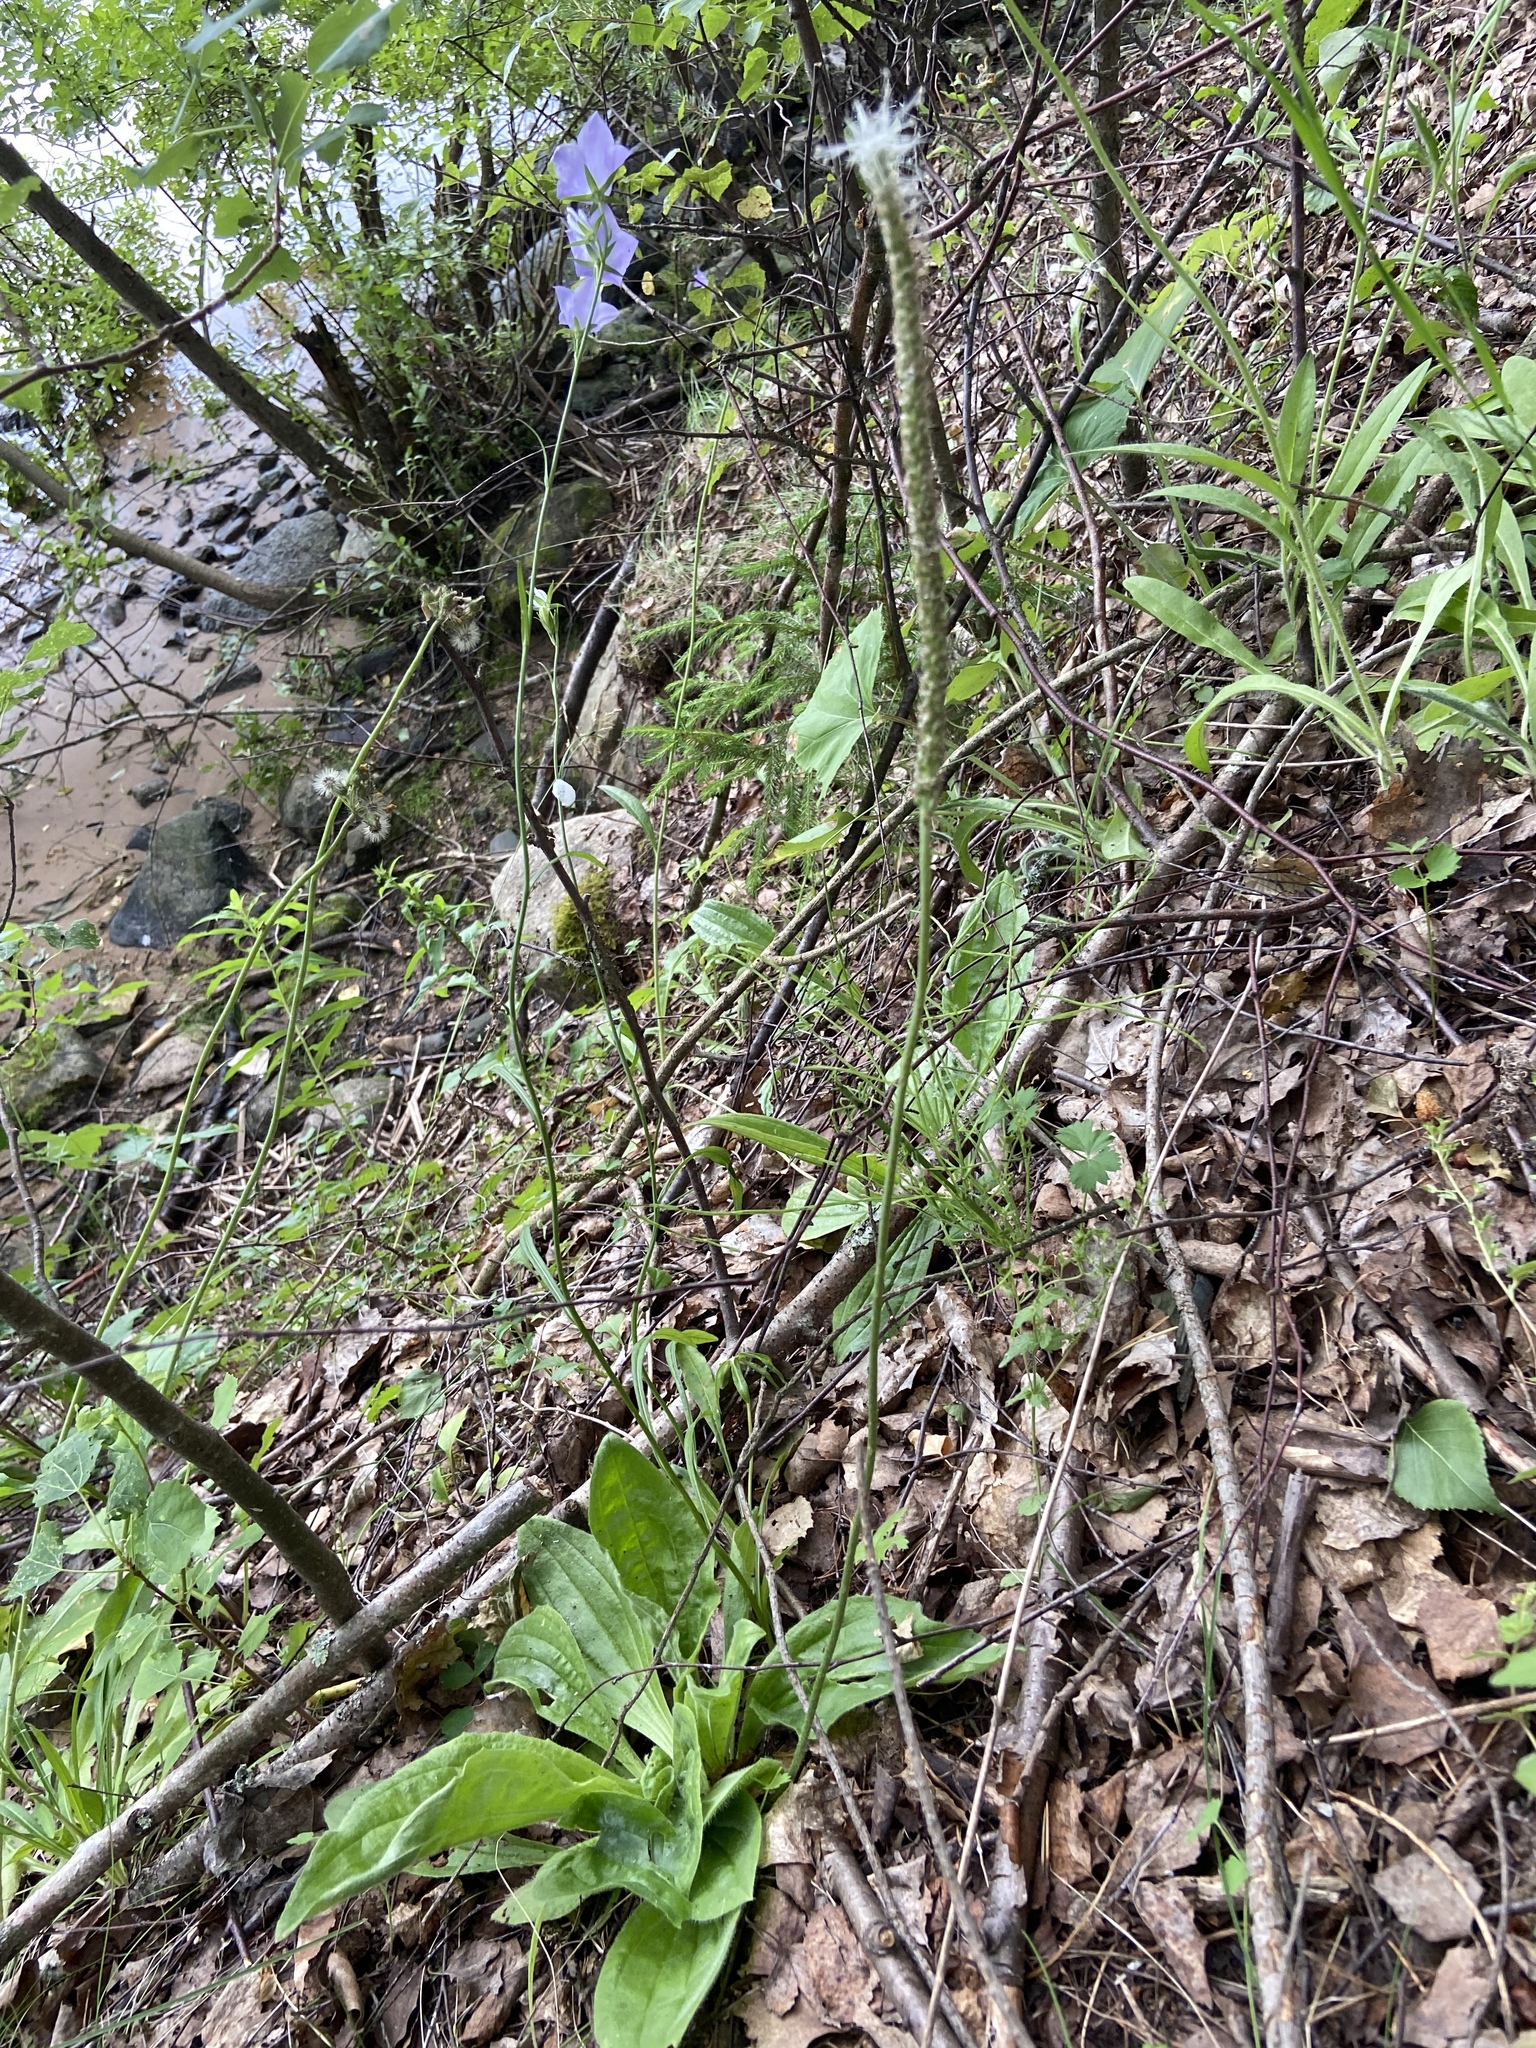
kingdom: Plantae
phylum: Tracheophyta
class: Magnoliopsida
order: Lamiales
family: Plantaginaceae
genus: Plantago
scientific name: Plantago media
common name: Hoary plantain
